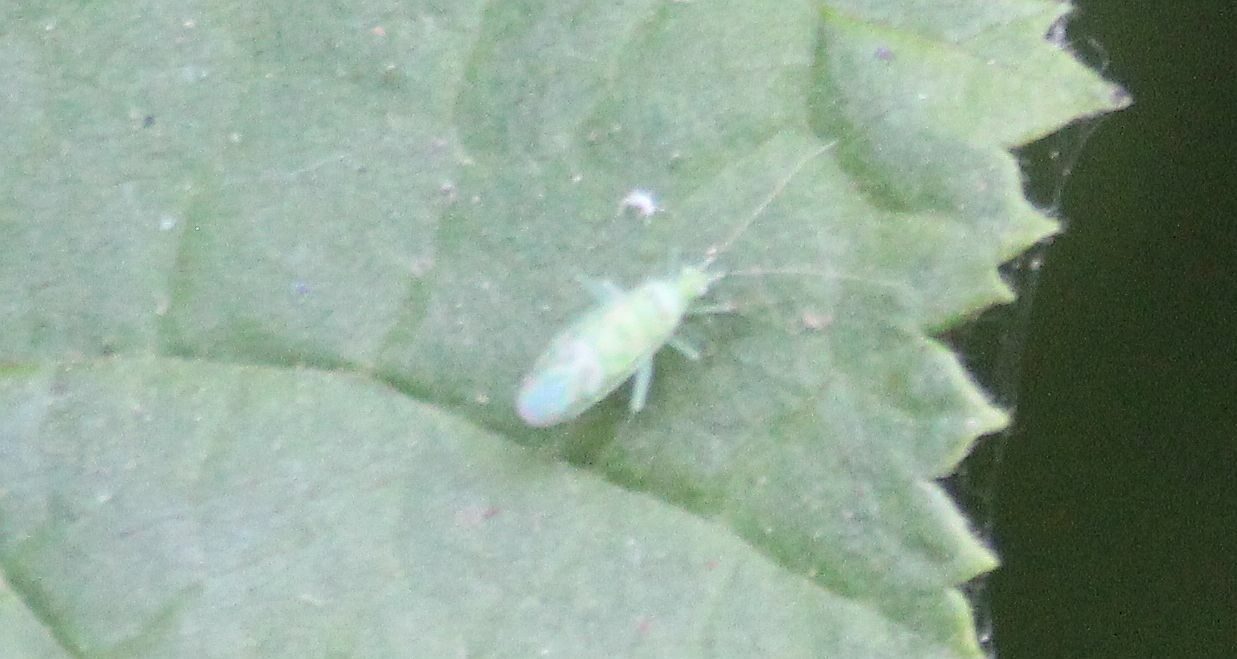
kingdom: Animalia
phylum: Arthropoda
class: Insecta
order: Hemiptera
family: Miridae
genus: Malacocoris
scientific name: Malacocoris chlorizans
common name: Plant bug
